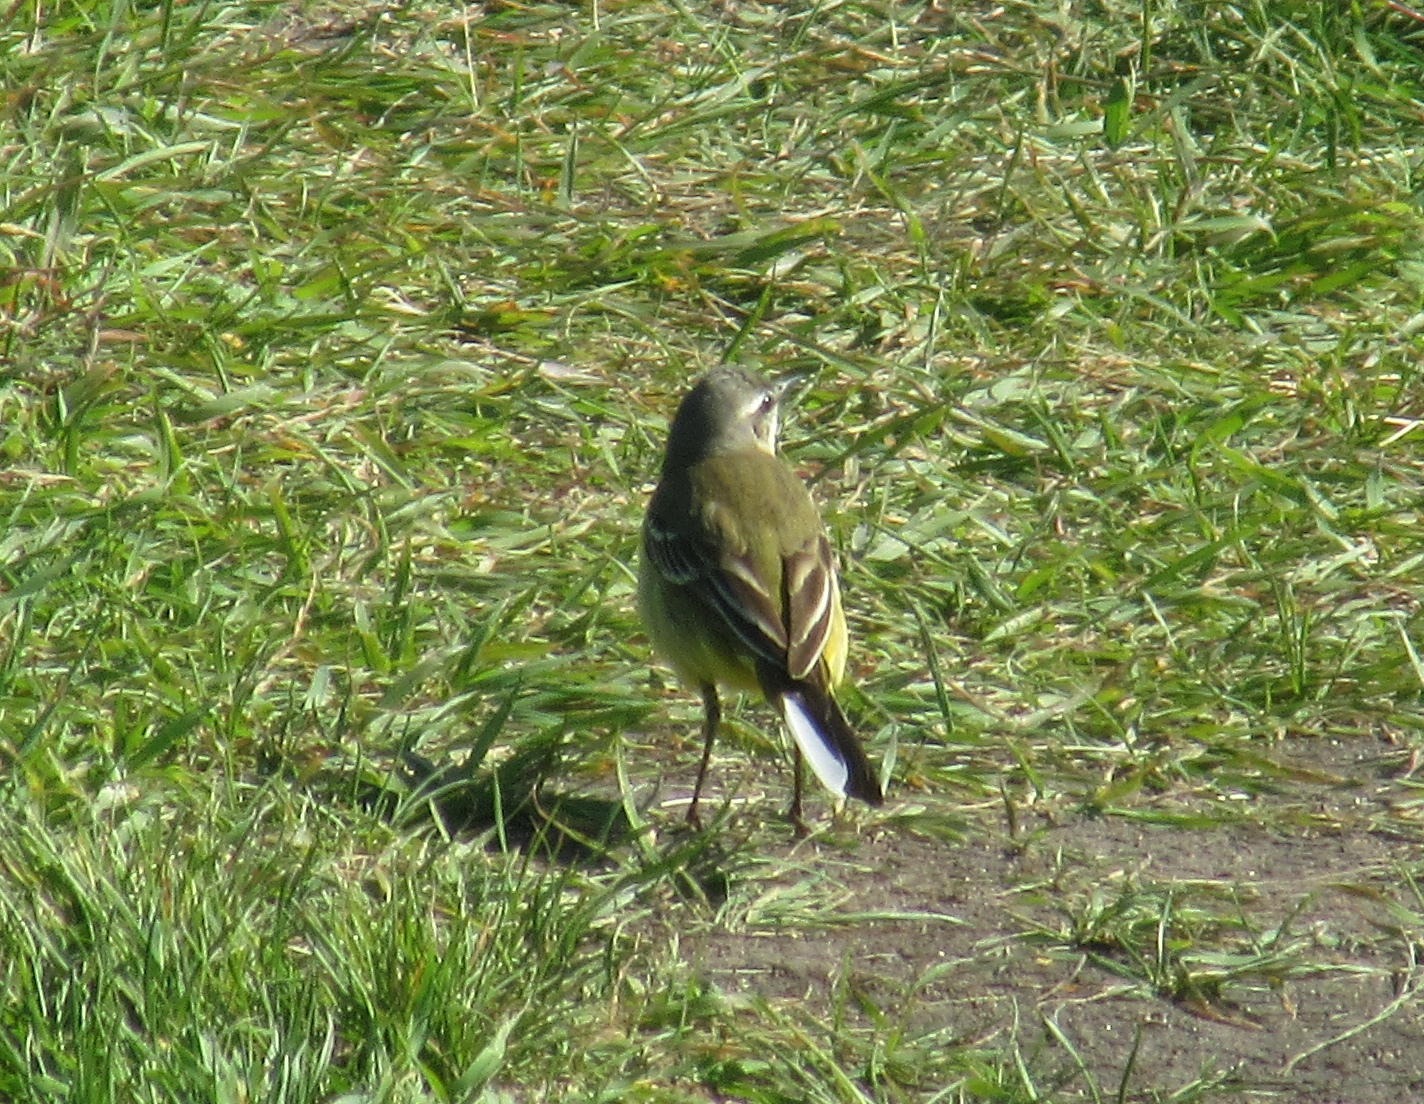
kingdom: Animalia
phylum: Chordata
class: Aves
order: Passeriformes
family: Motacillidae
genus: Motacilla
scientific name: Motacilla flava
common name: Western yellow wagtail
